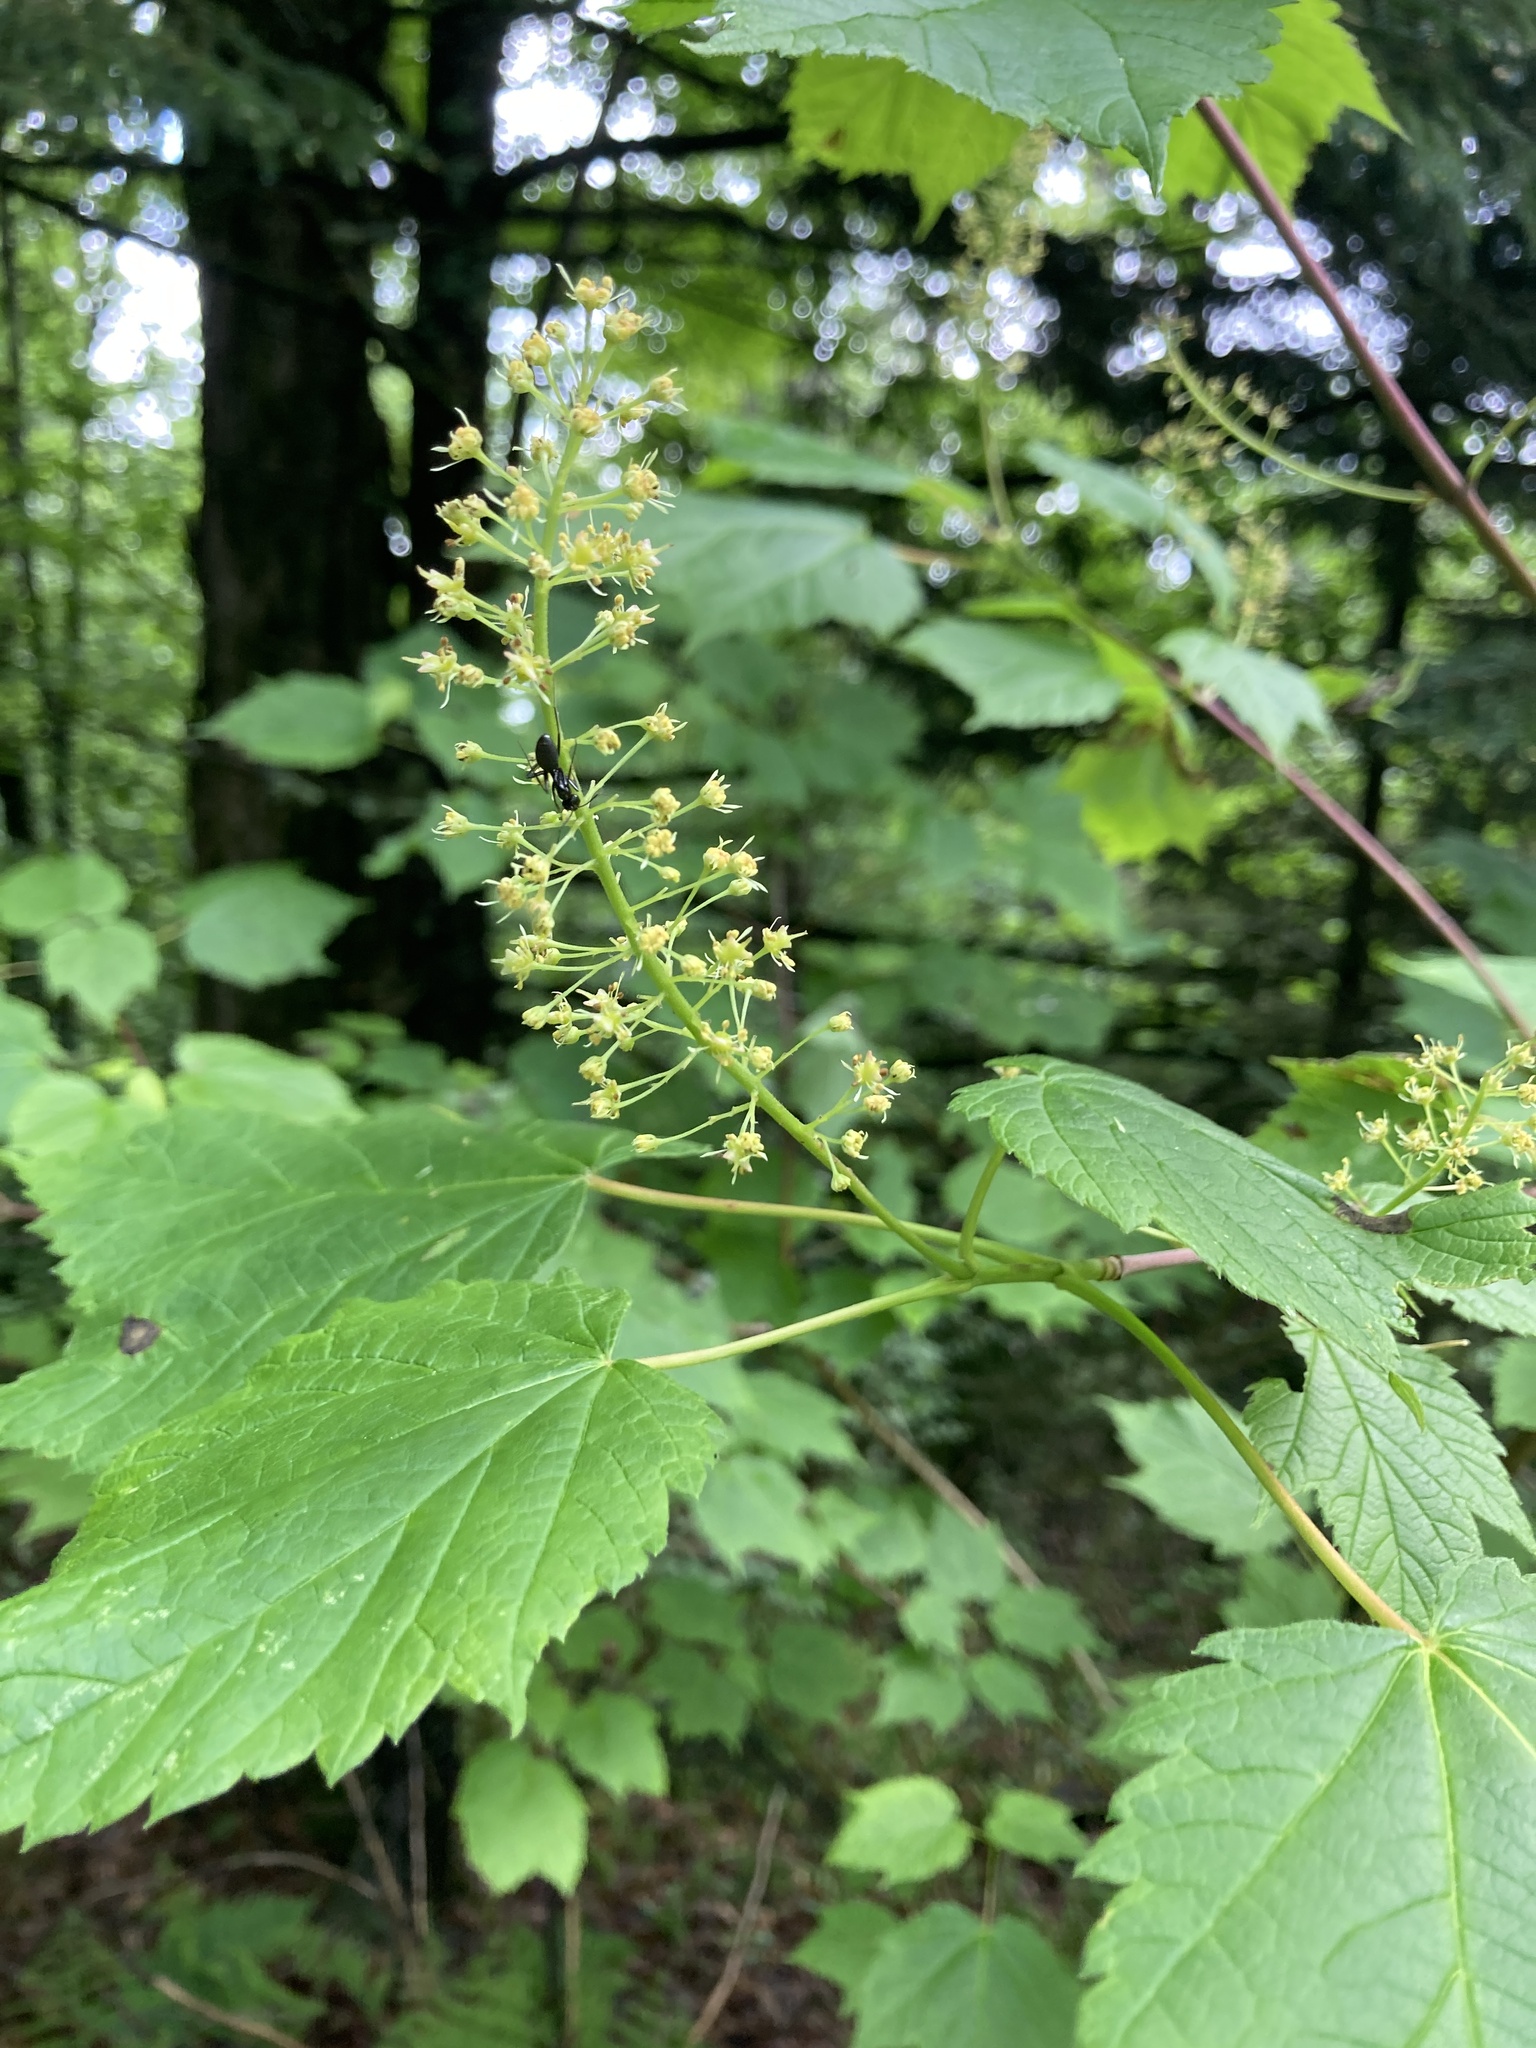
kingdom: Plantae
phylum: Tracheophyta
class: Magnoliopsida
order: Sapindales
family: Sapindaceae
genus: Acer
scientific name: Acer spicatum
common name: Mountain maple
